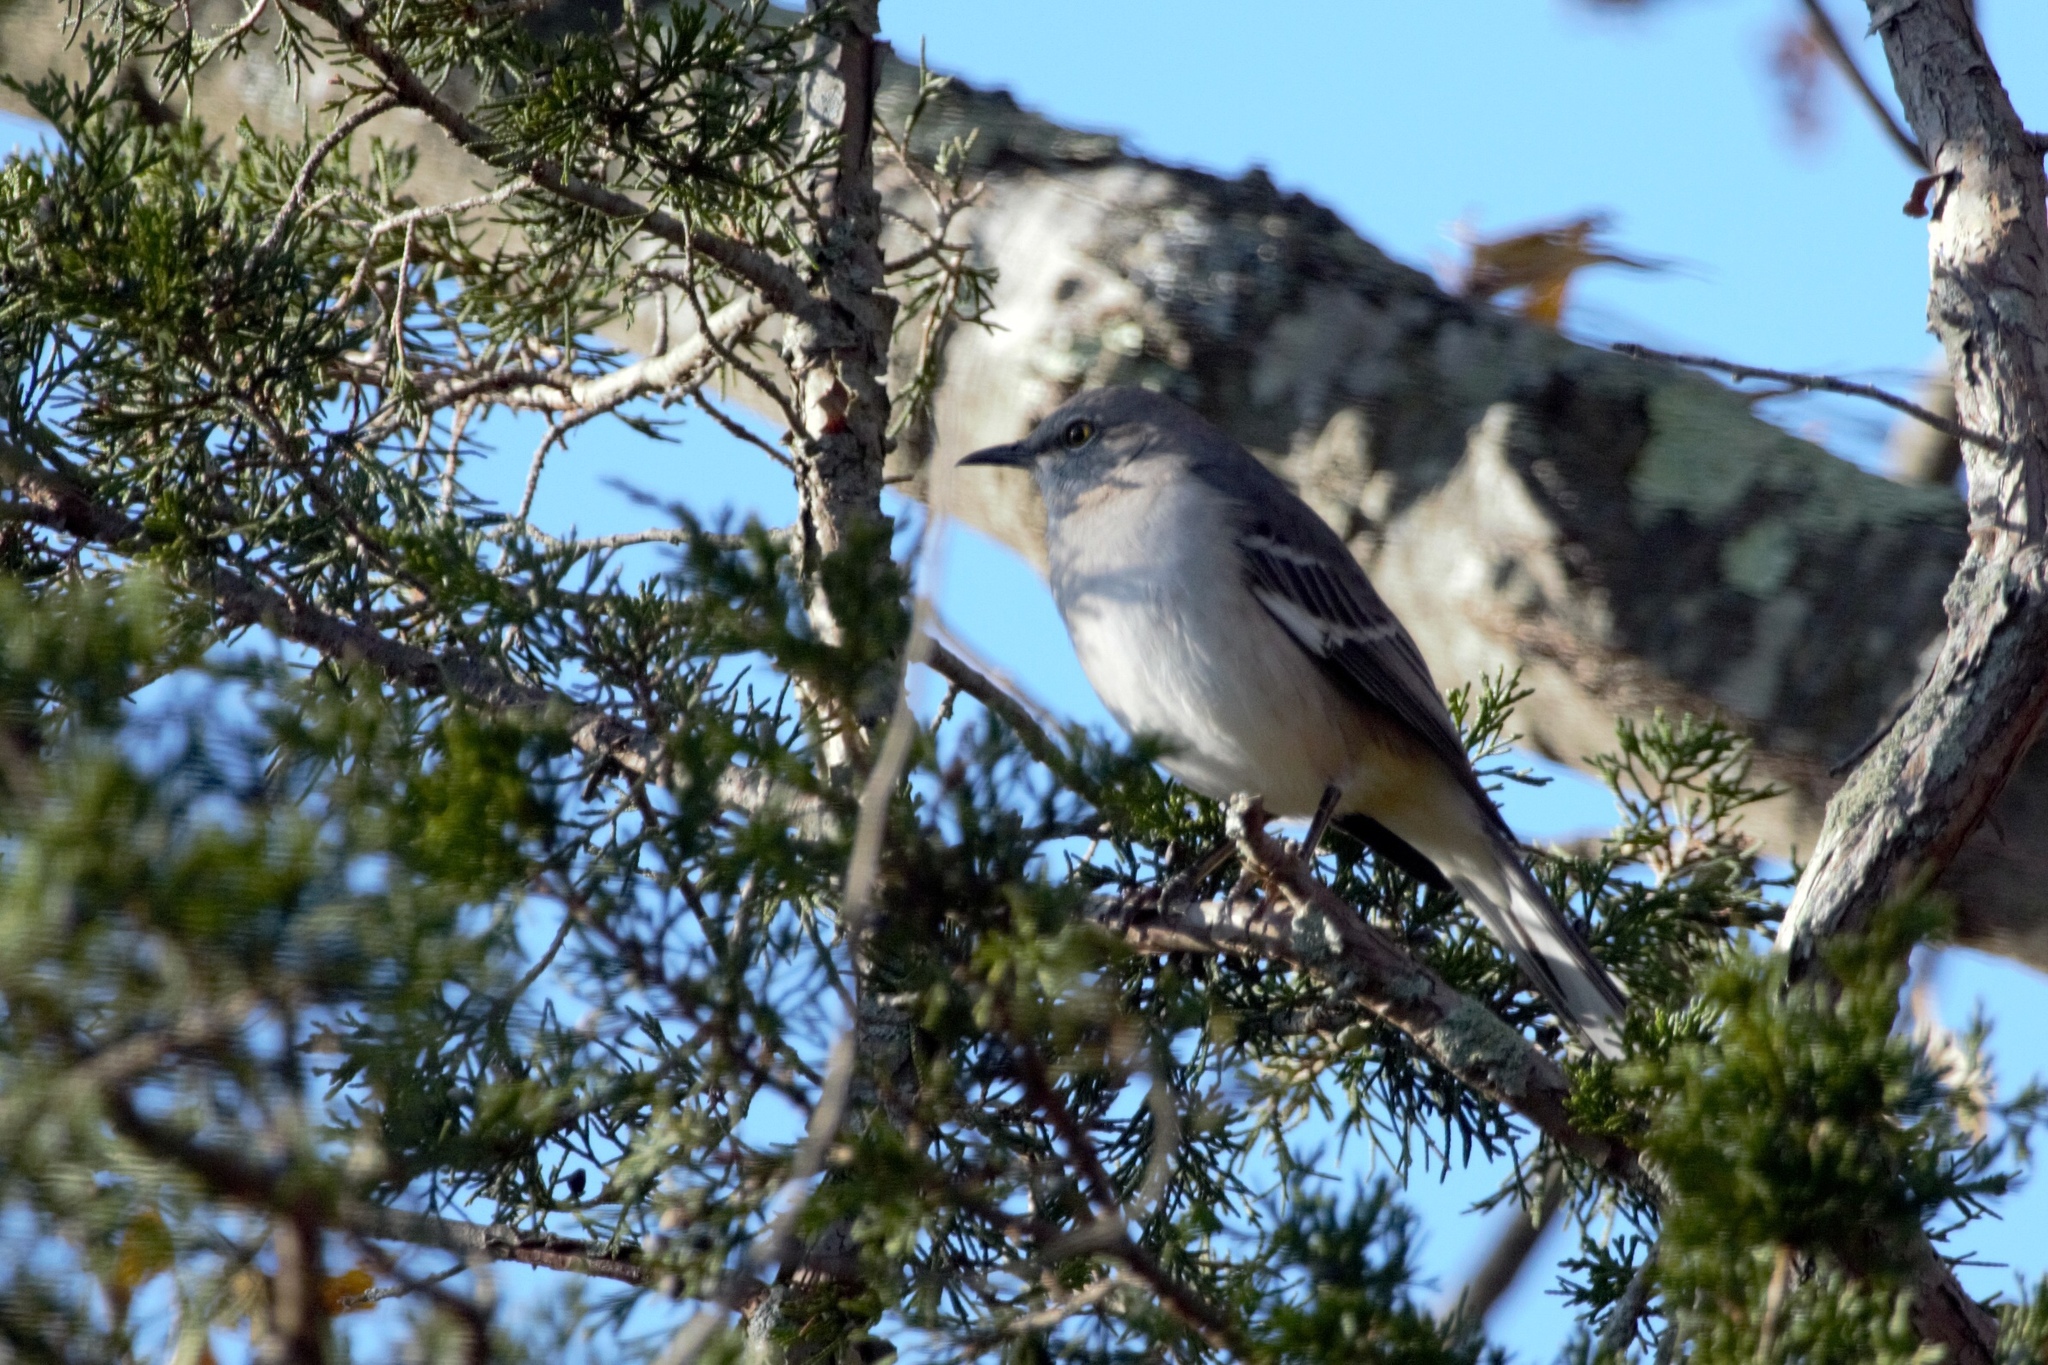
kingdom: Animalia
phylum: Chordata
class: Aves
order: Passeriformes
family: Mimidae
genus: Mimus
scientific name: Mimus polyglottos
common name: Northern mockingbird
